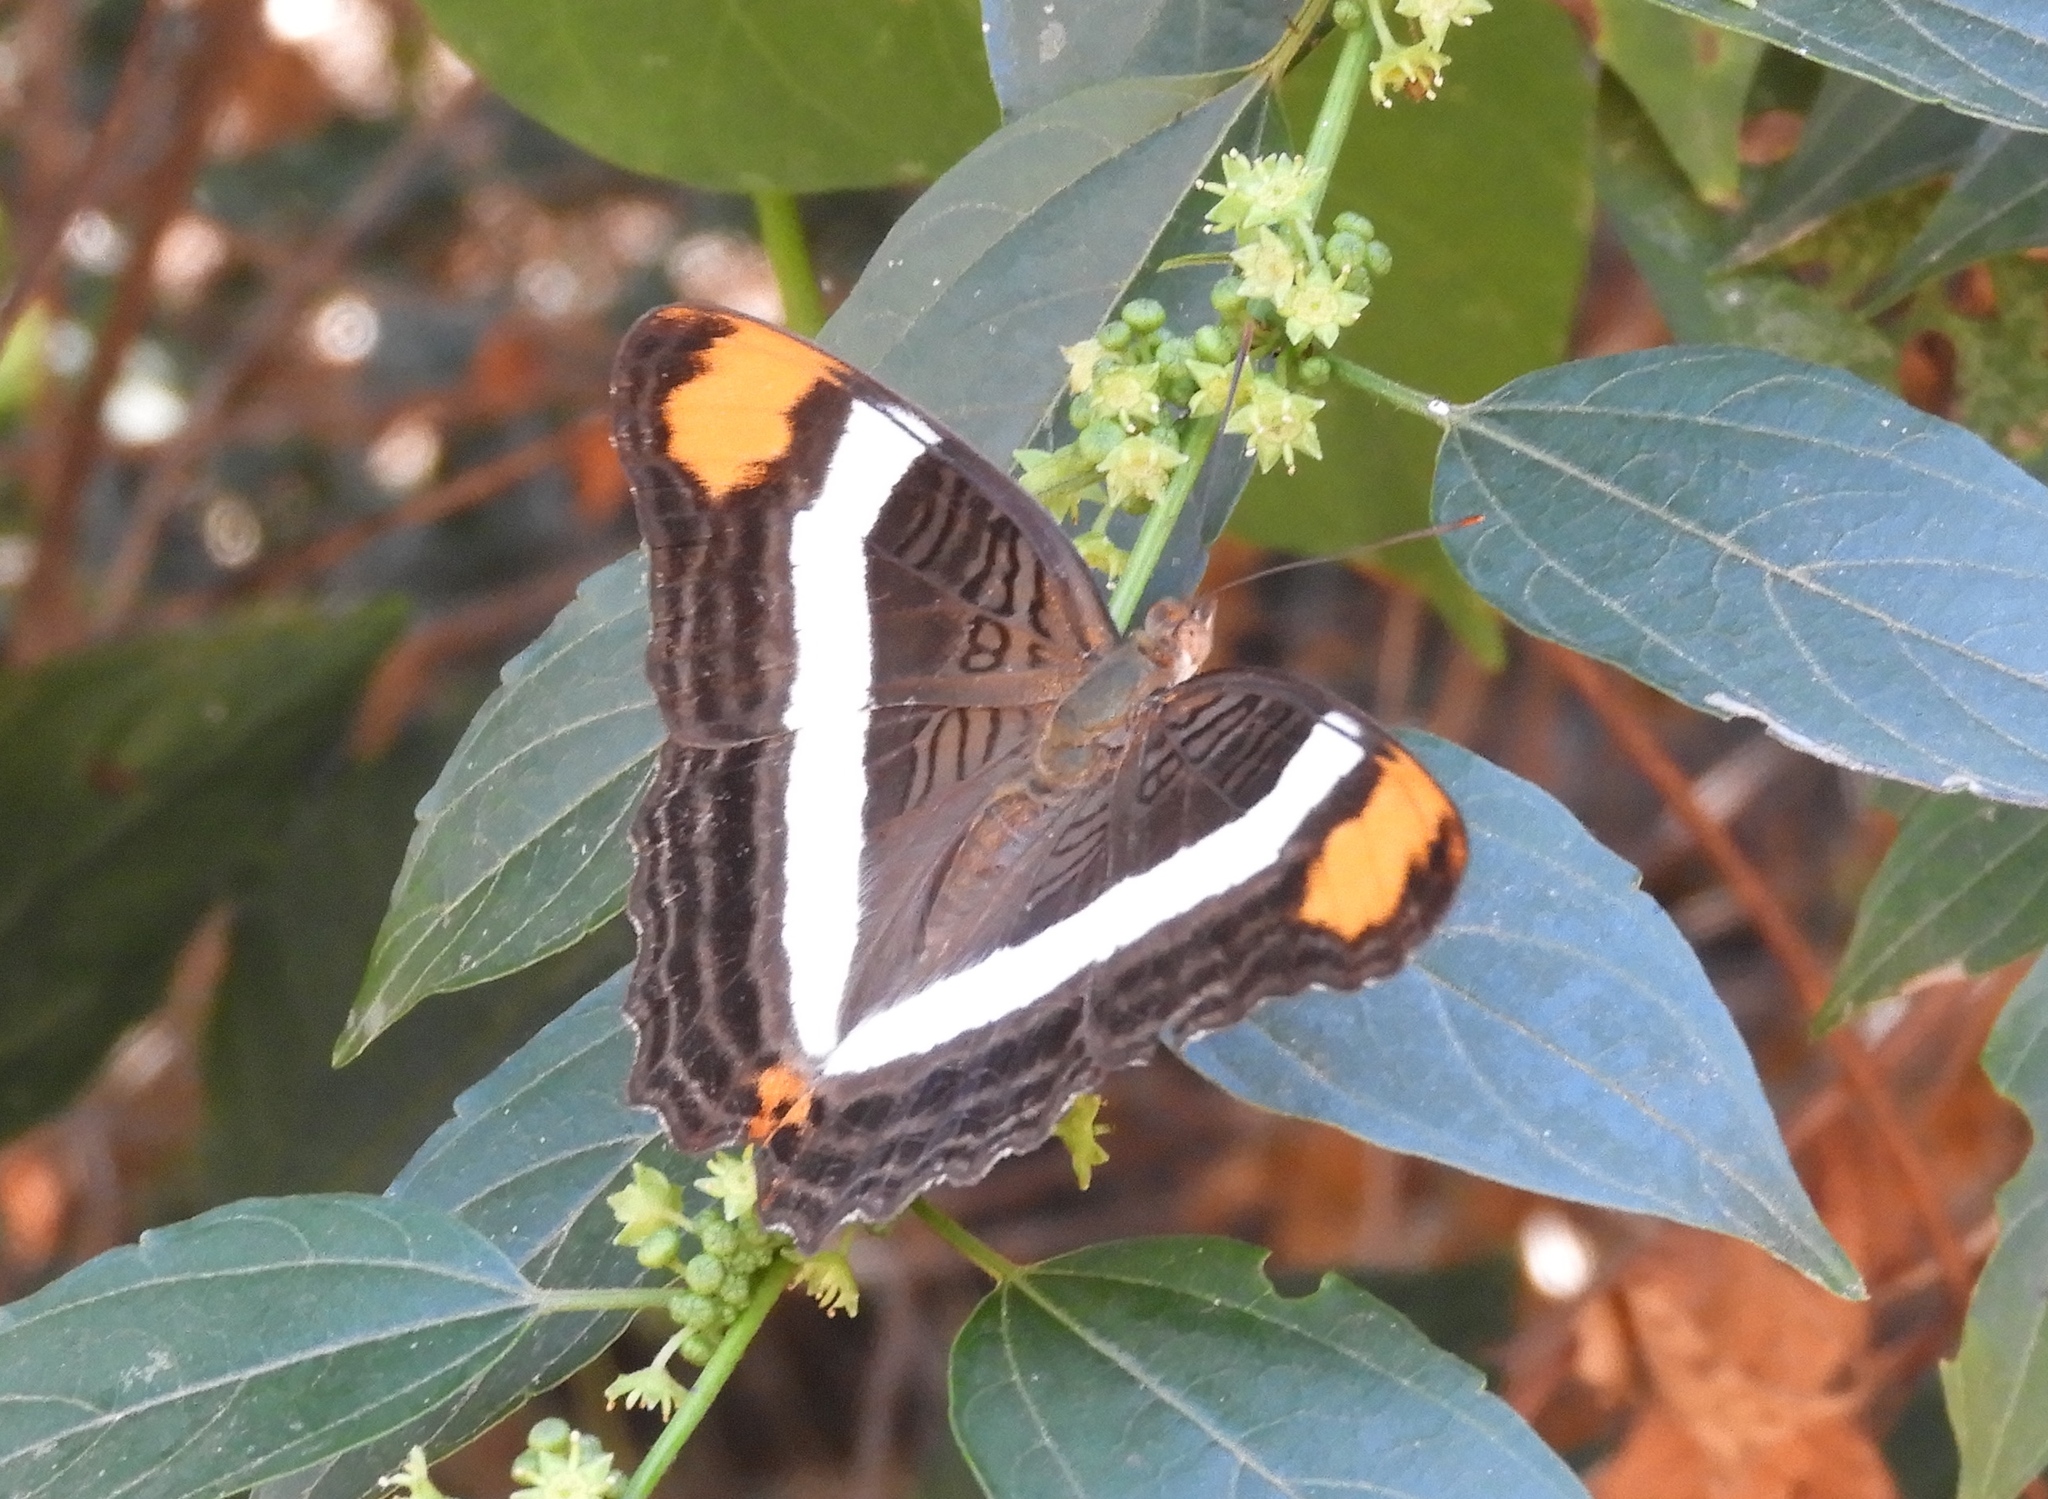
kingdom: Animalia
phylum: Arthropoda
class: Insecta
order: Lepidoptera
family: Nymphalidae
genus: Limenitis
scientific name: Limenitis fessonia
